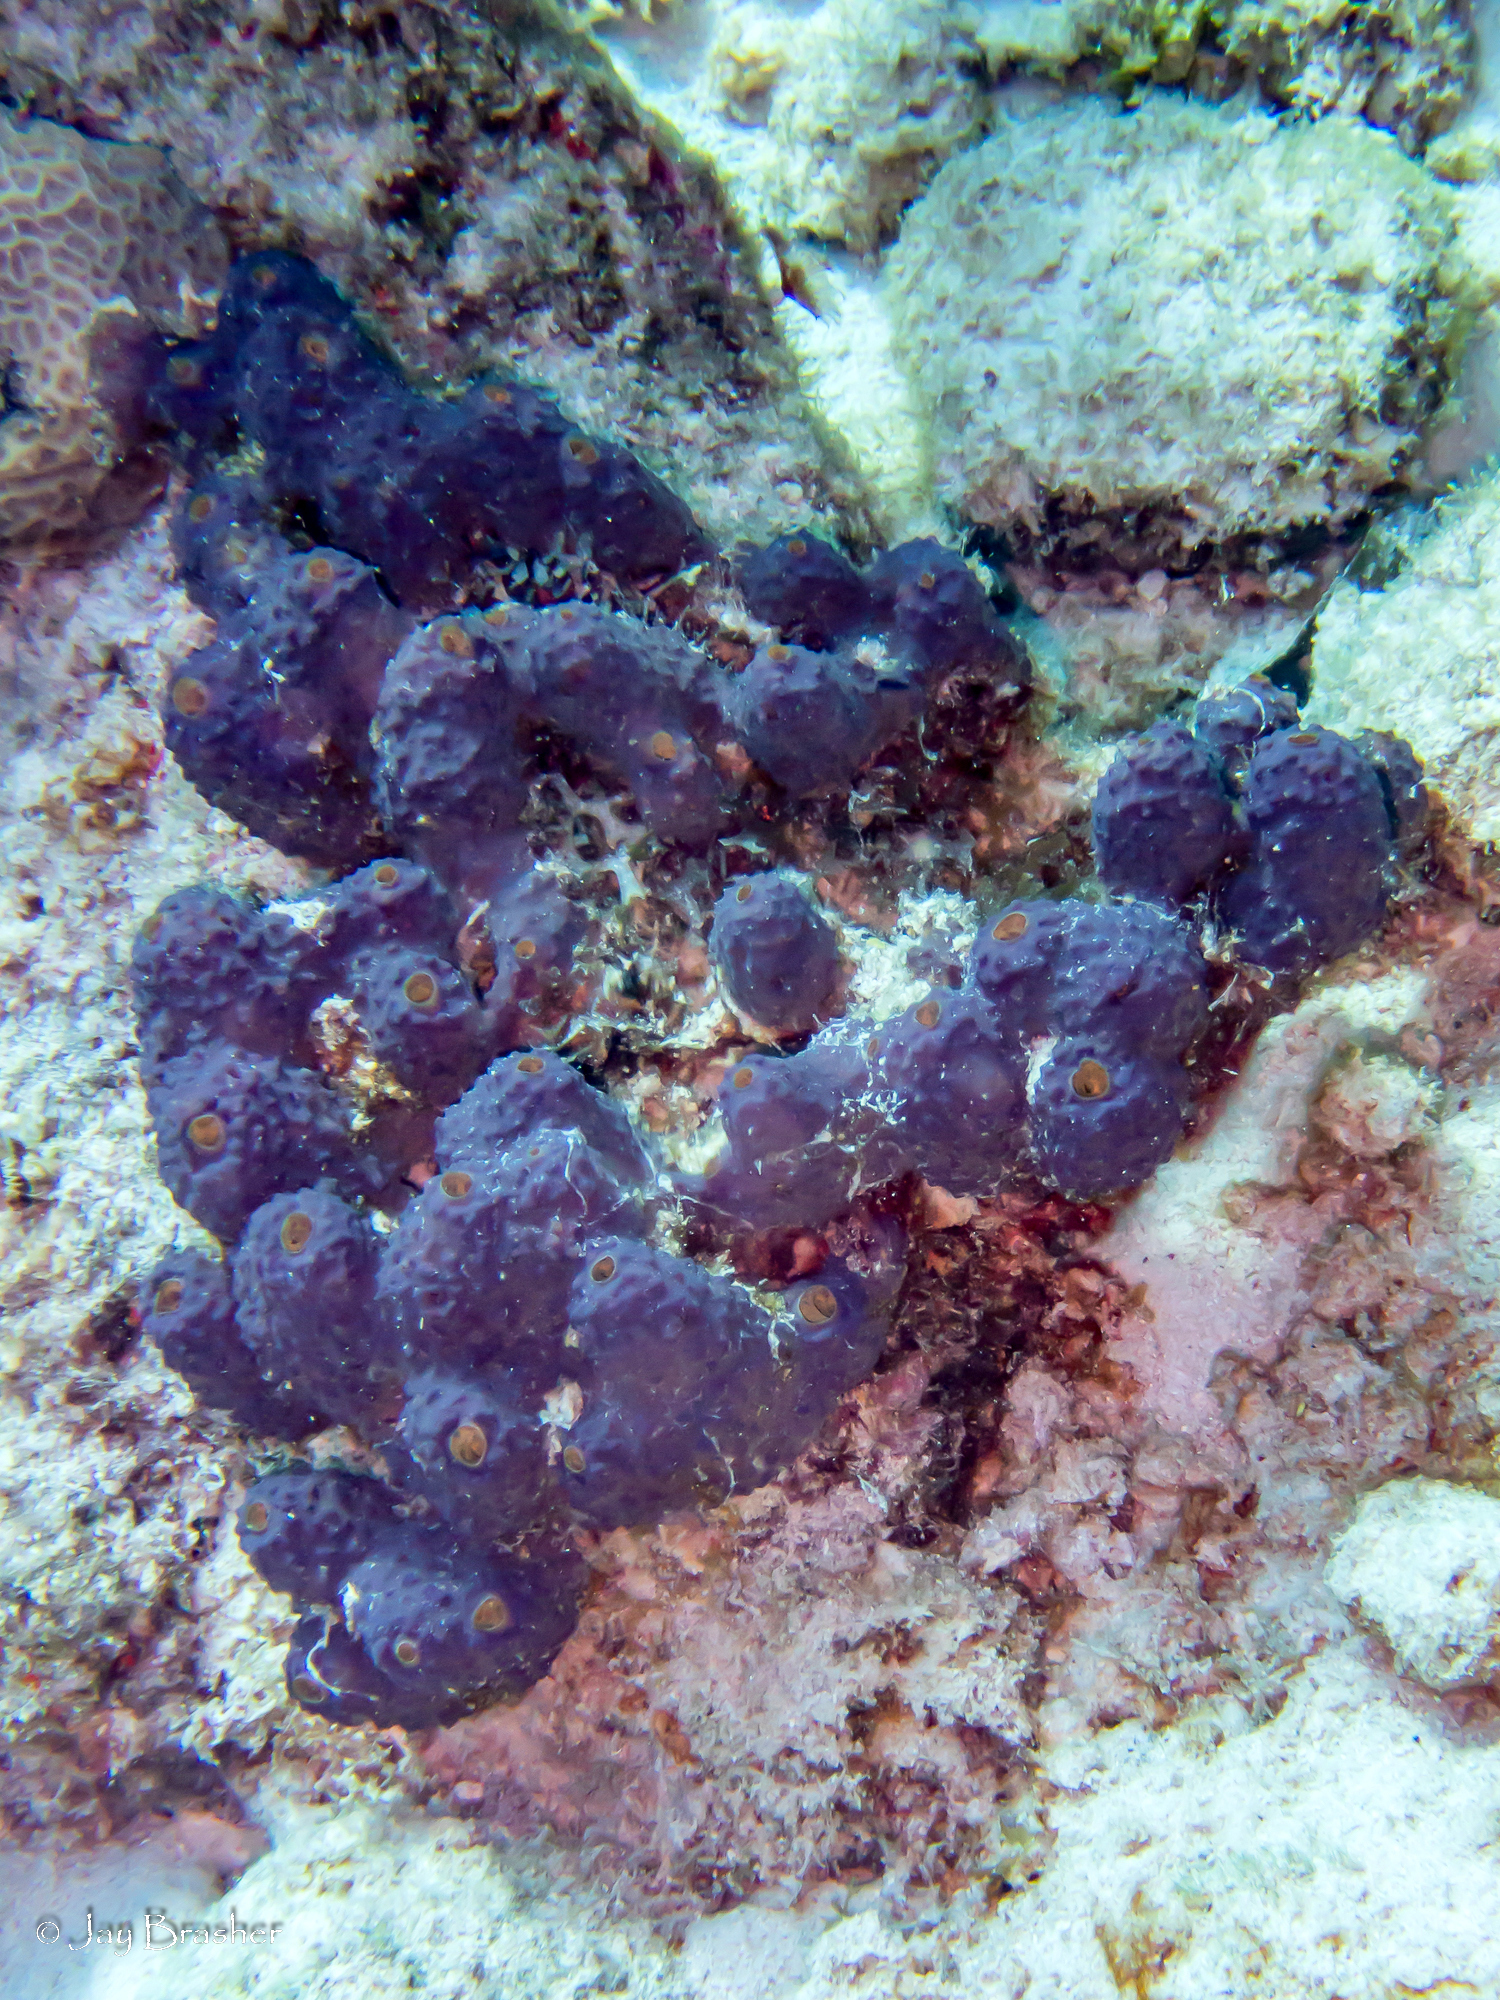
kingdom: Animalia
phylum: Porifera
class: Demospongiae
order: Verongiida
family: Aplysinidae
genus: Aiolochroia
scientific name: Aiolochroia crassa
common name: Branching tube sponge
